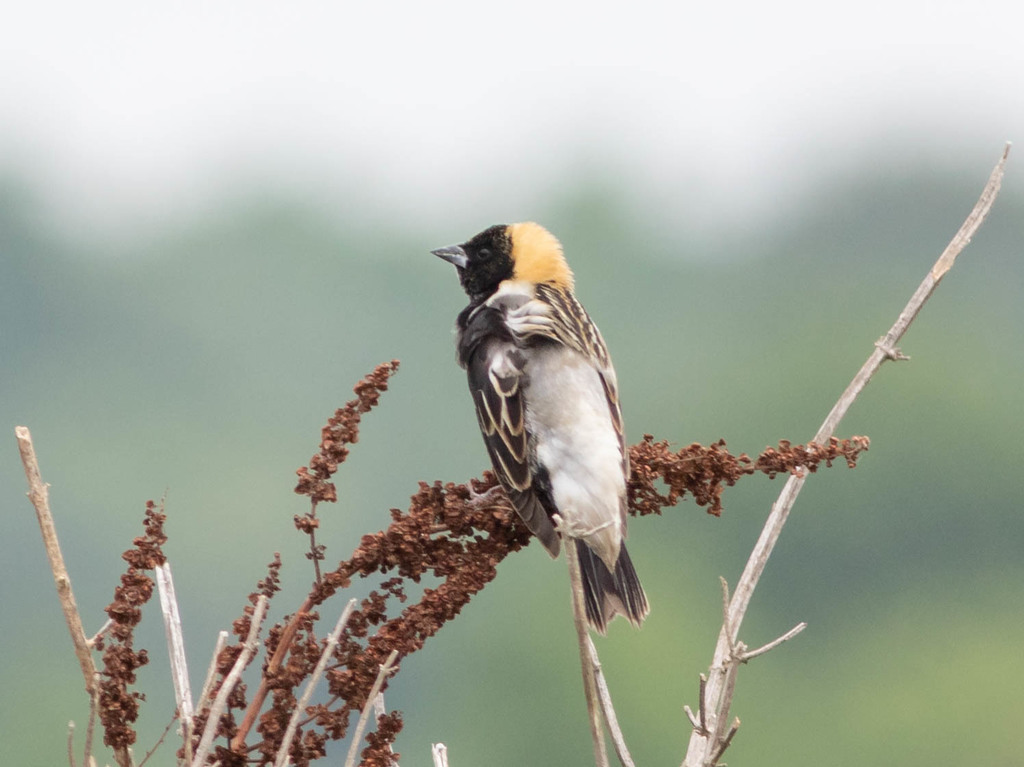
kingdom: Animalia
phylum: Chordata
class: Aves
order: Passeriformes
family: Icteridae
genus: Dolichonyx
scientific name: Dolichonyx oryzivorus
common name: Bobolink
